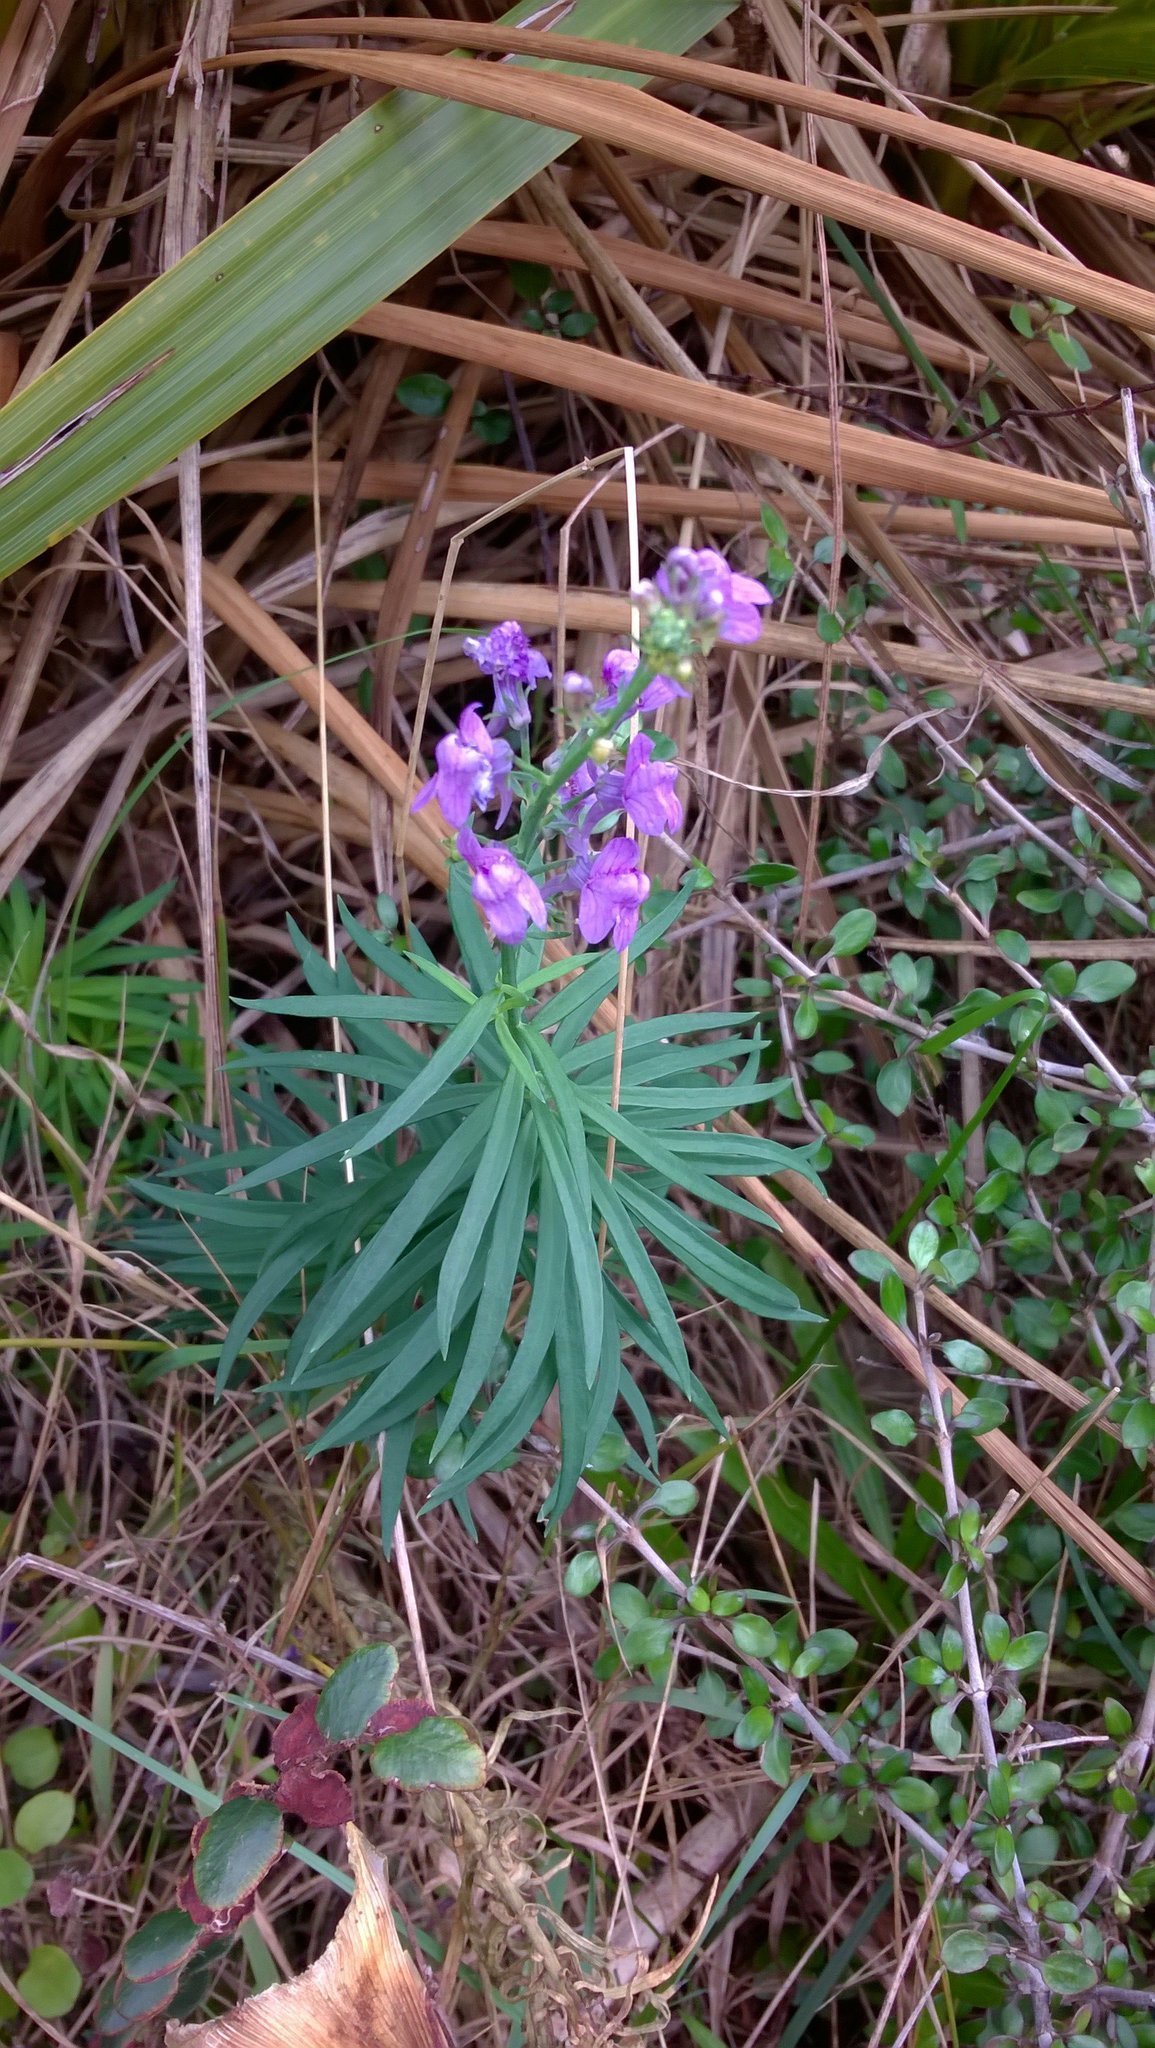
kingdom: Plantae
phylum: Tracheophyta
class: Magnoliopsida
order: Lamiales
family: Plantaginaceae
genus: Linaria
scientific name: Linaria purpurea
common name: Purple toadflax
